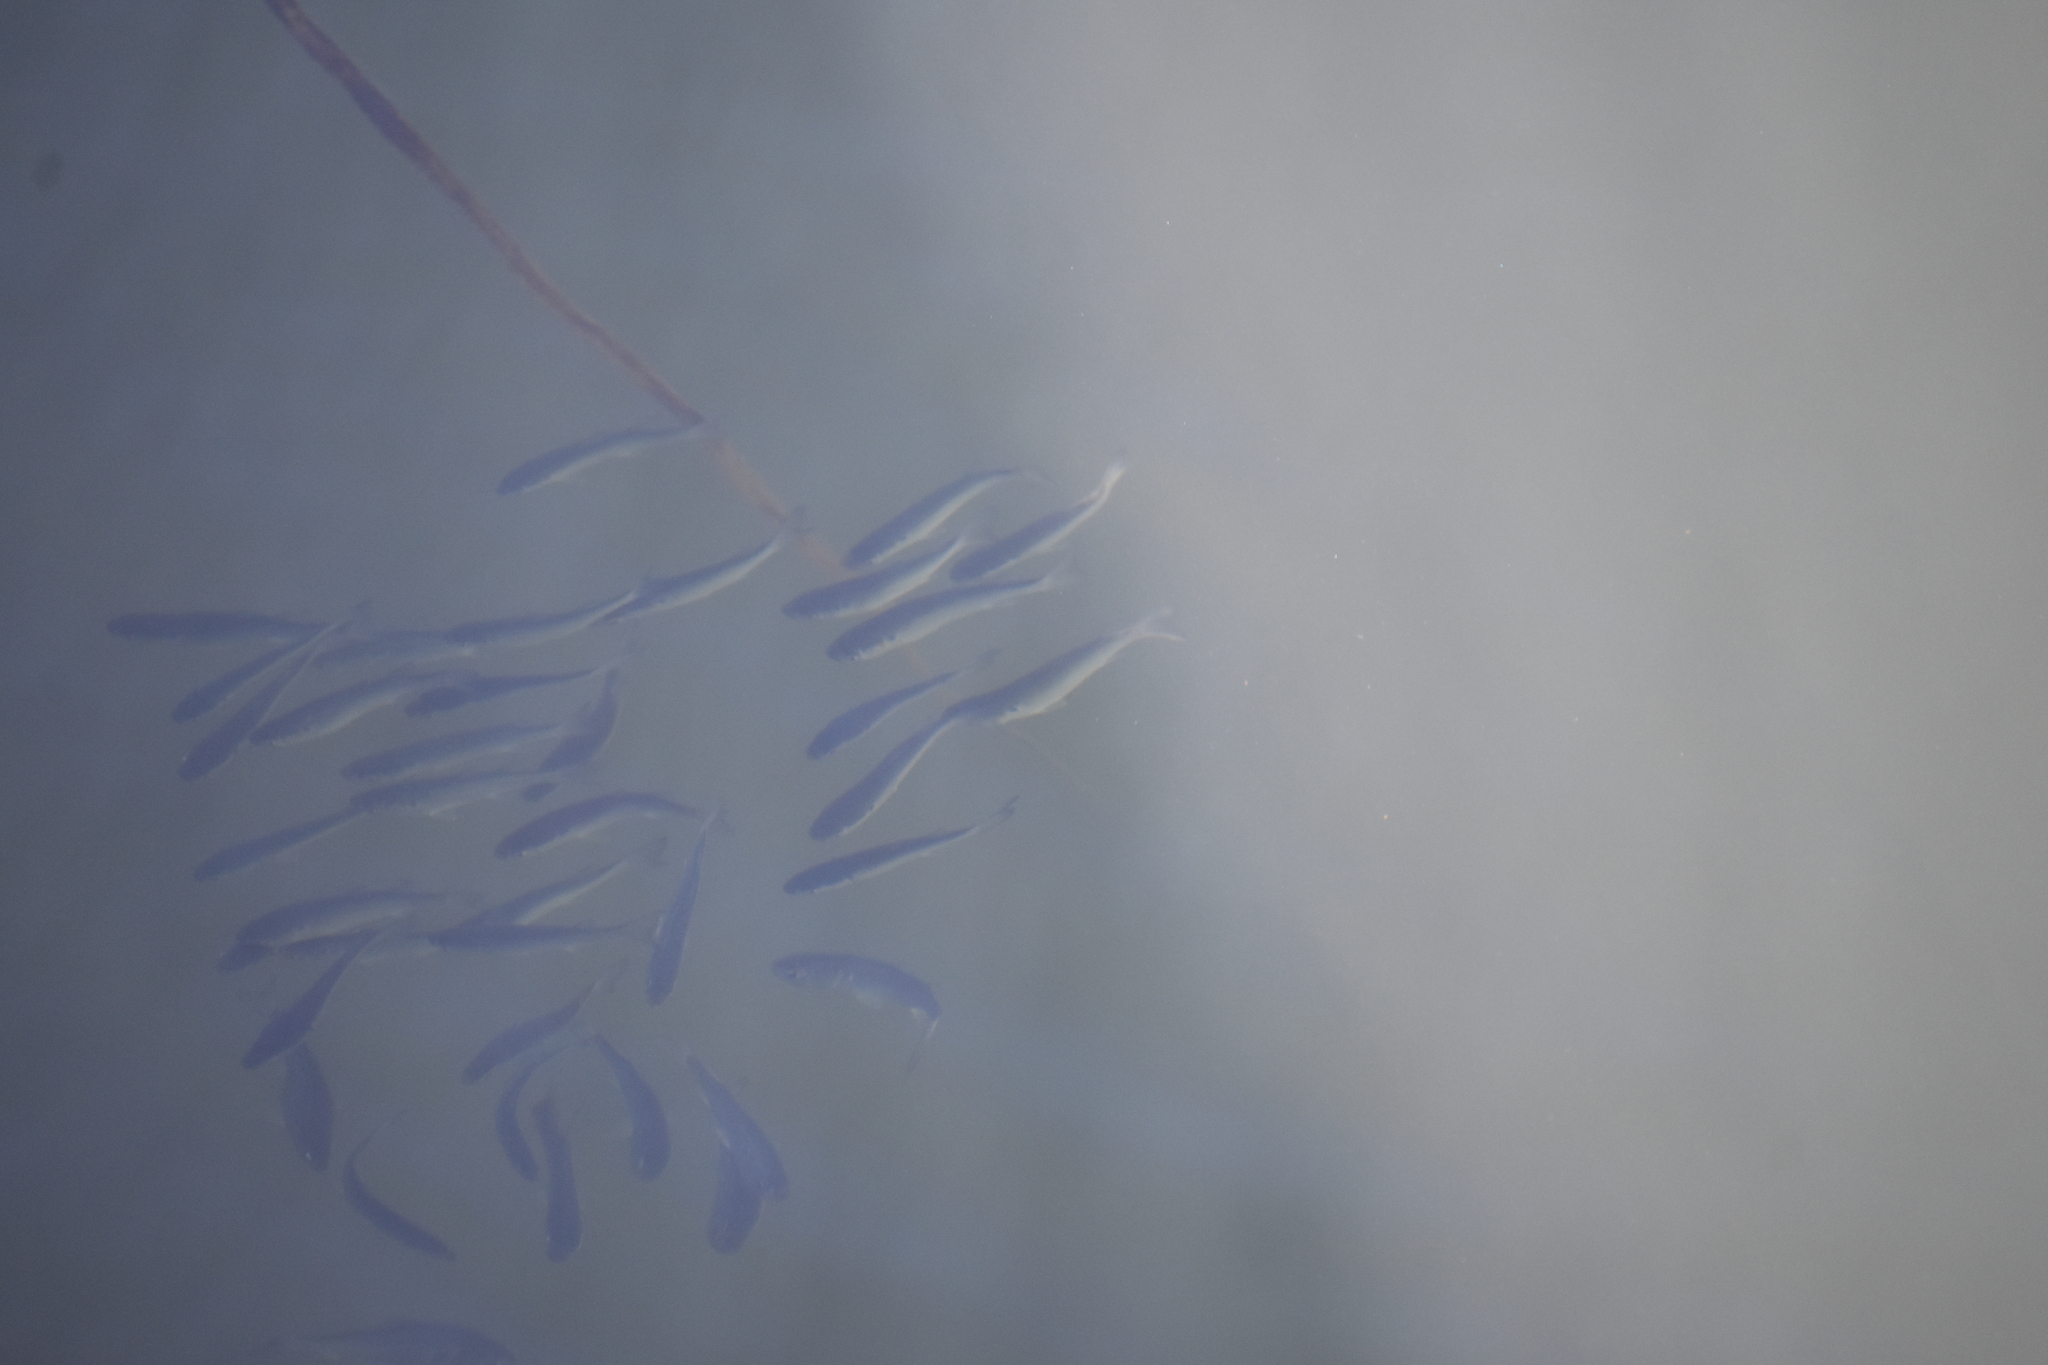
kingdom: Animalia
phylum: Chordata
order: Clupeiformes
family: Clupeidae
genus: Brevoortia
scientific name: Brevoortia tyrannus
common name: Atlantic menhaden
